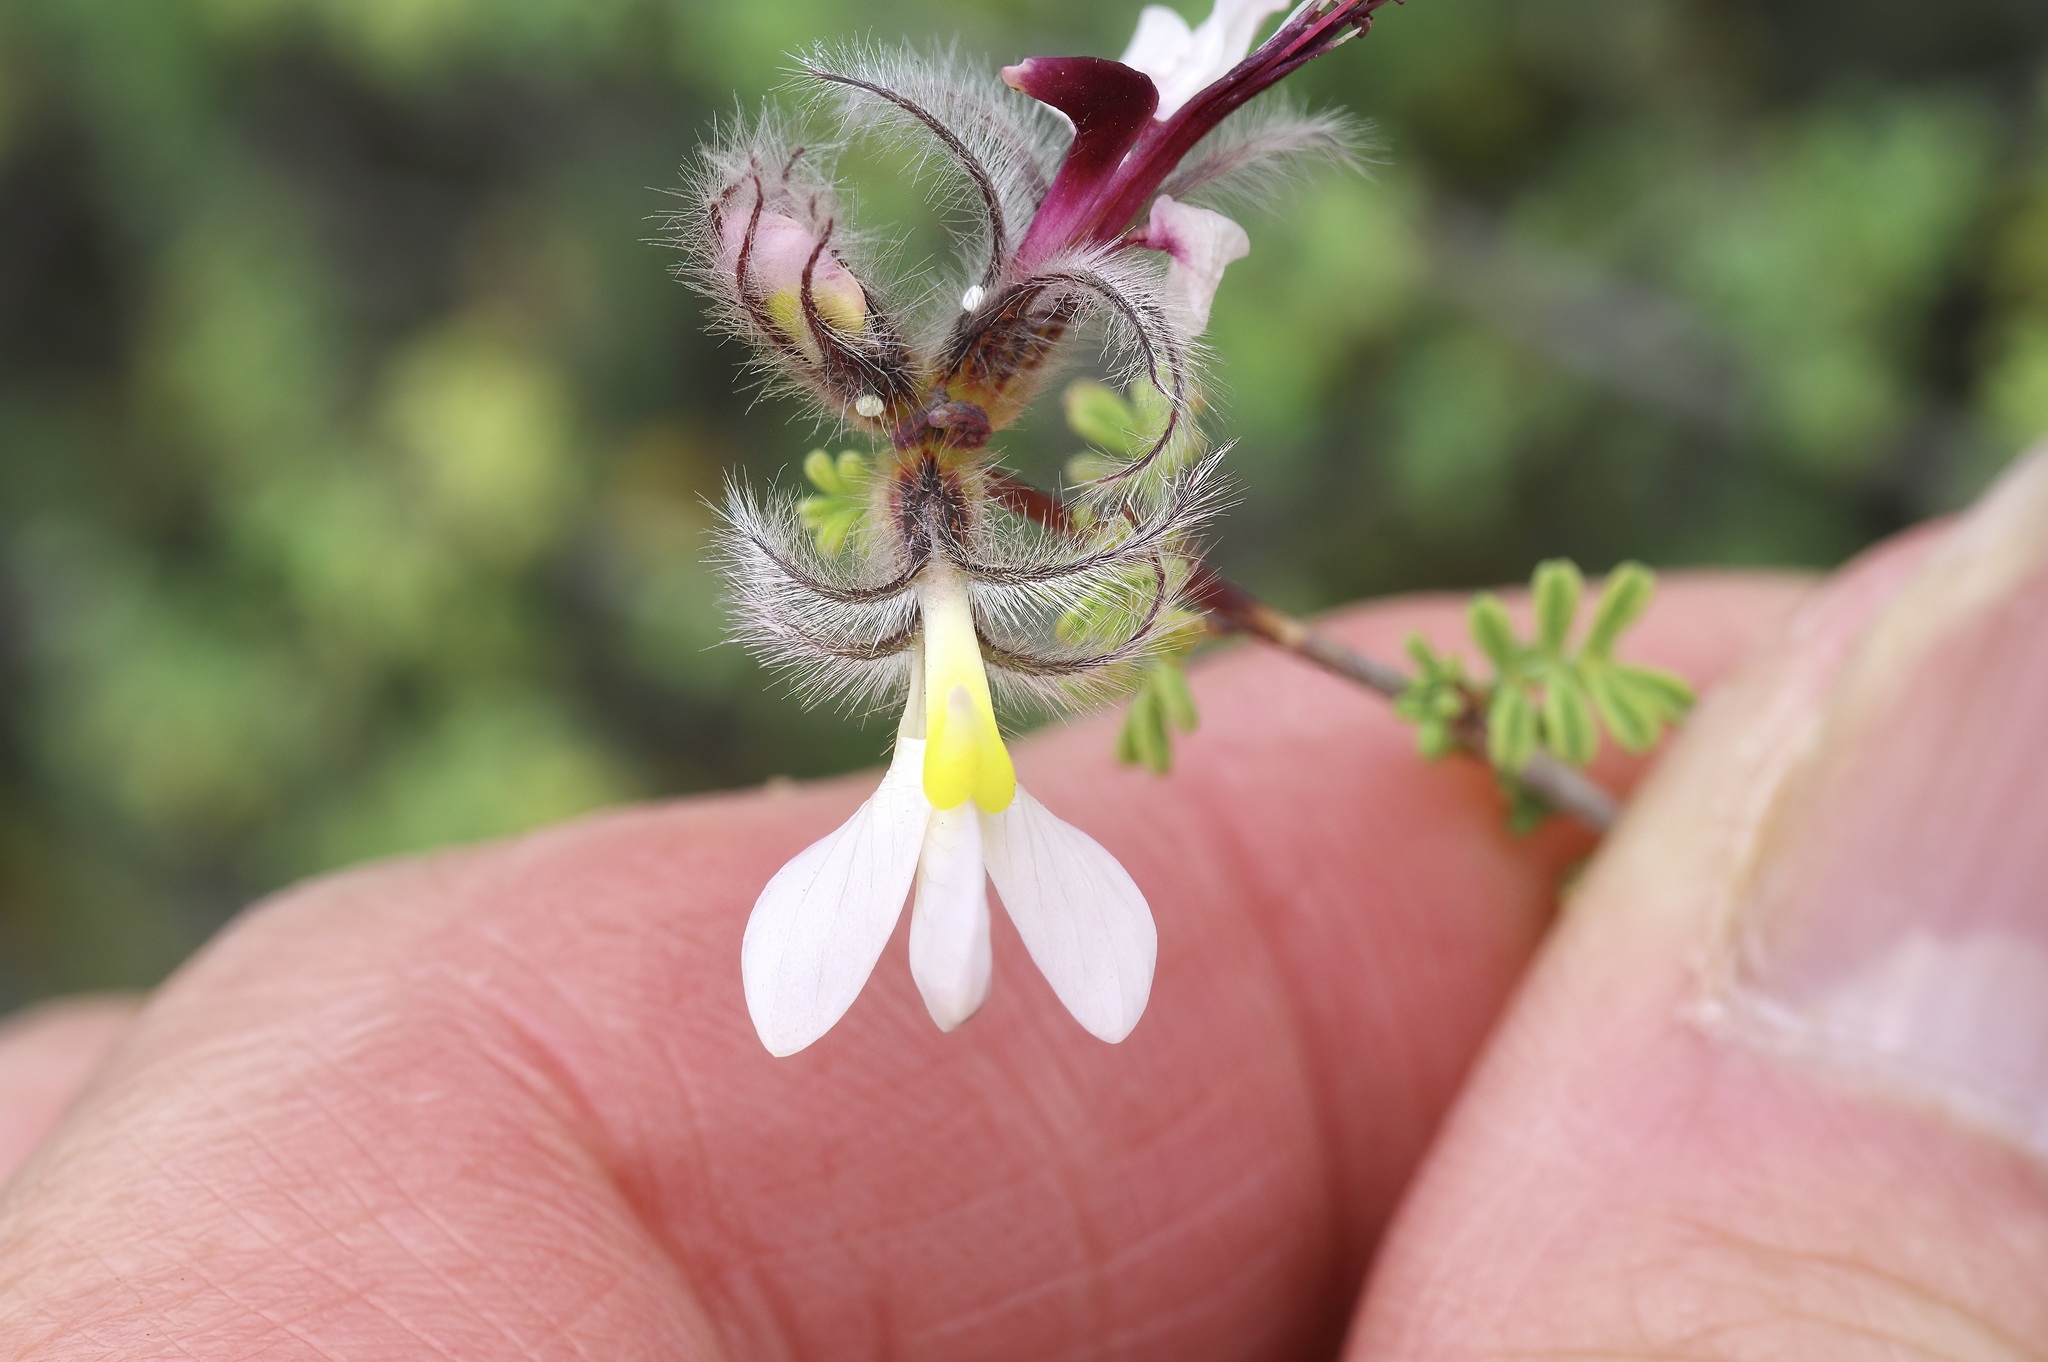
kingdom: Plantae
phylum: Tracheophyta
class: Magnoliopsida
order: Fabales
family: Fabaceae
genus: Dalea
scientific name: Dalea formosa
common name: Feather-plume dalea
